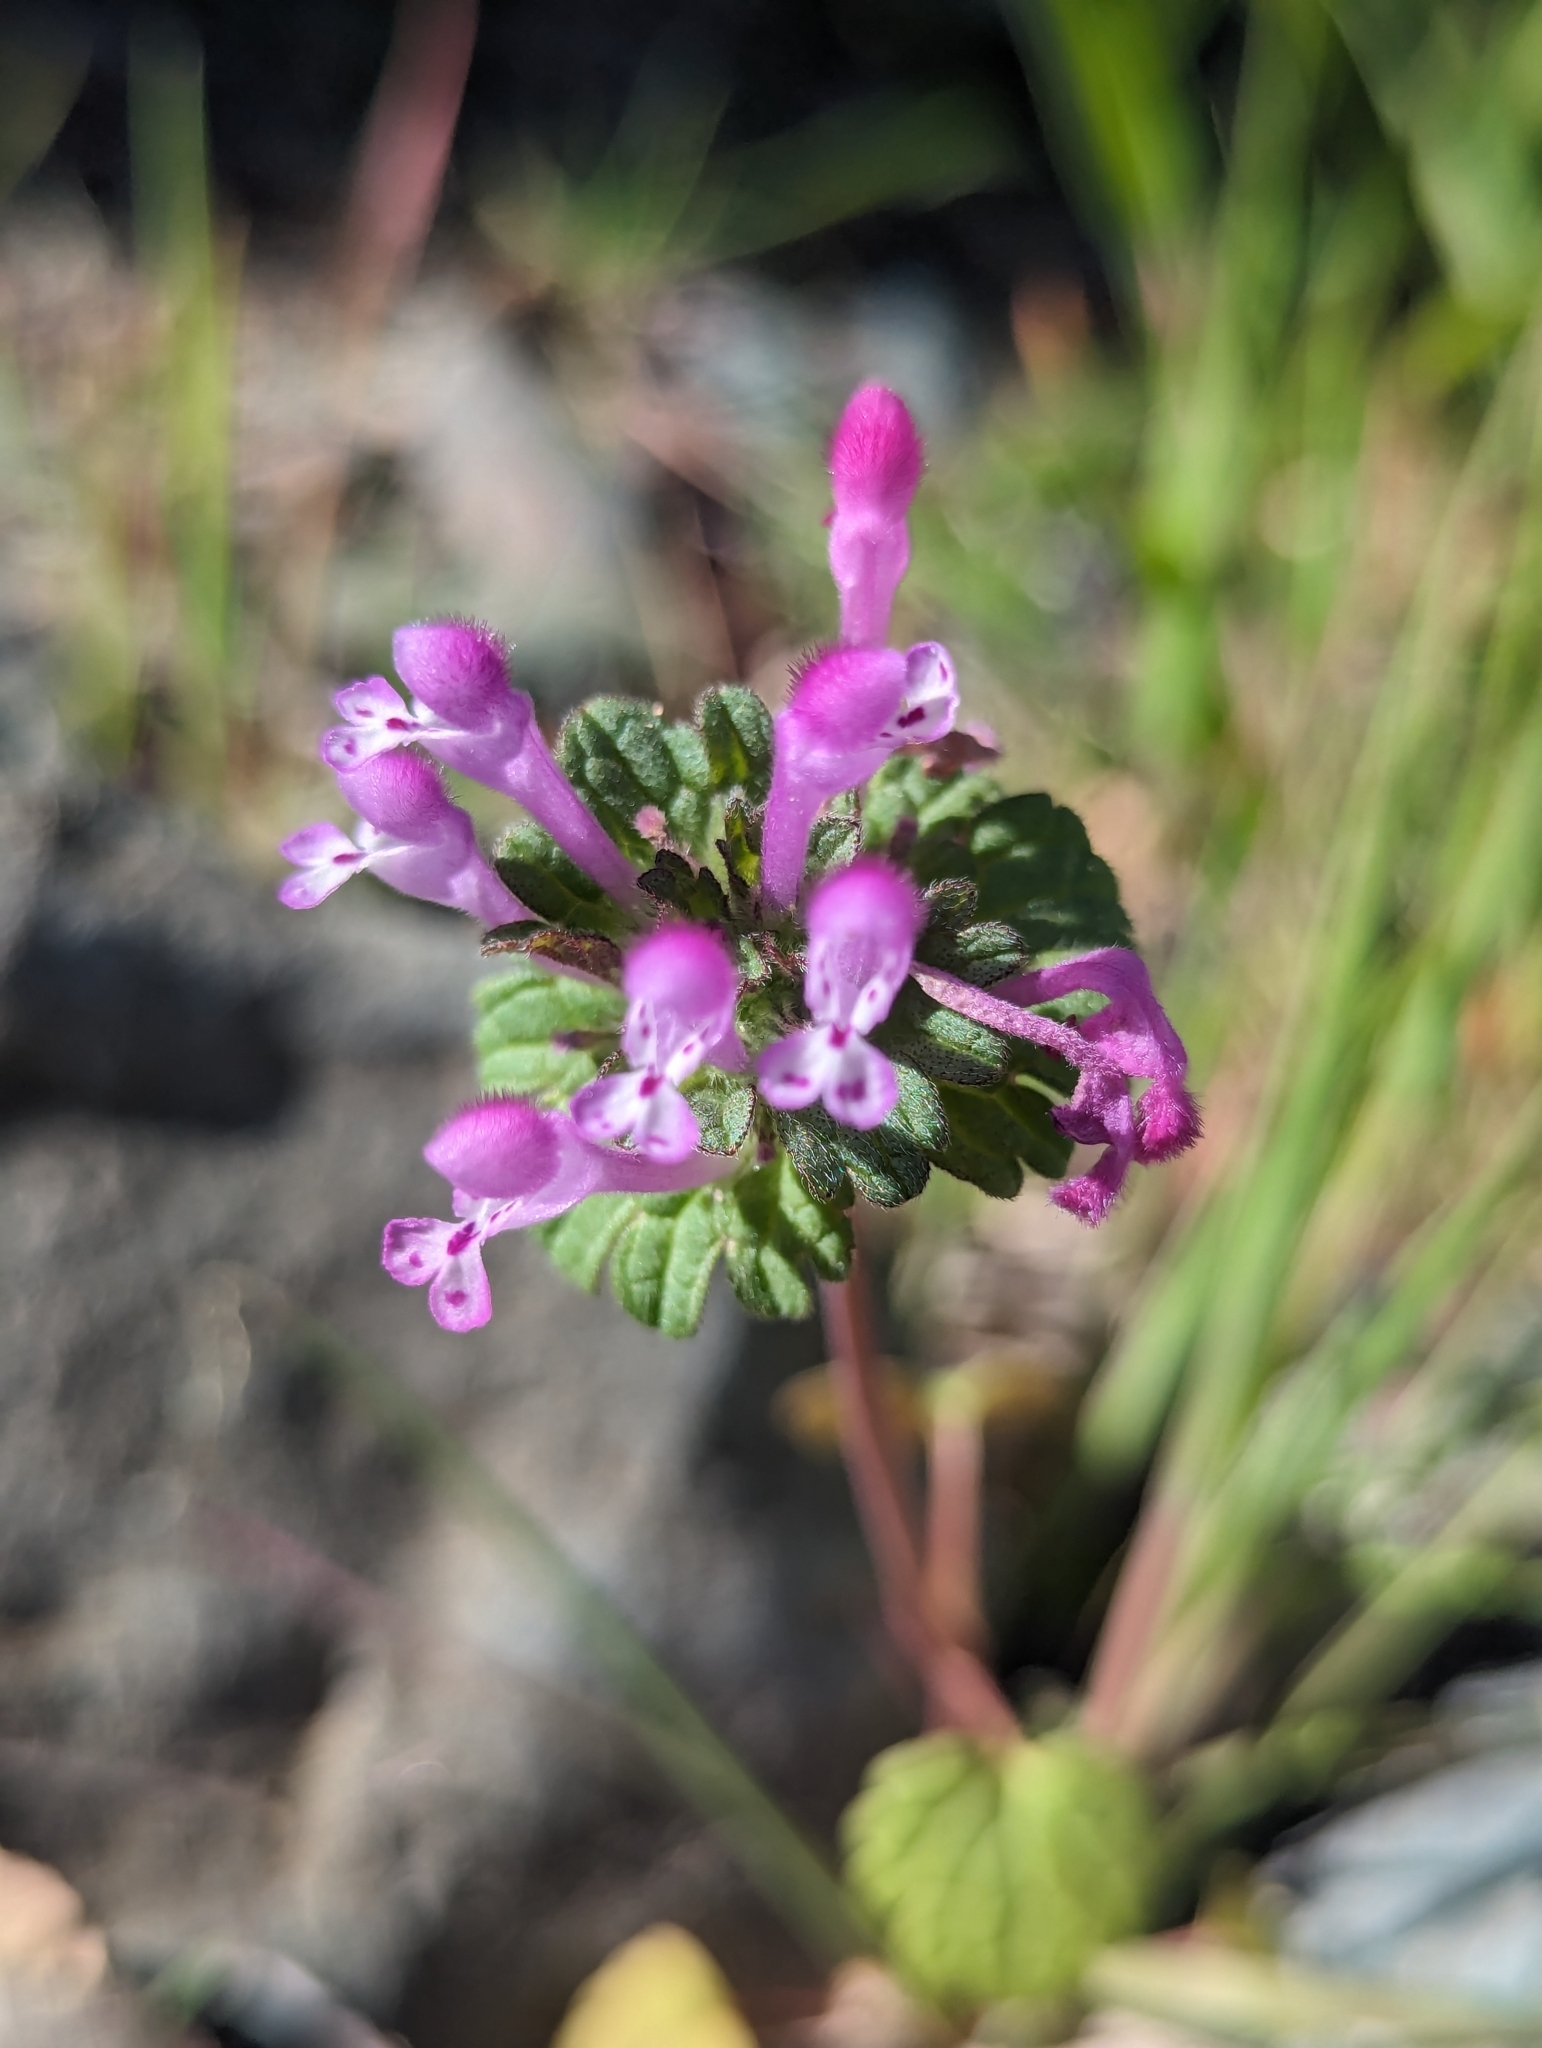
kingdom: Plantae
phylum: Tracheophyta
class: Magnoliopsida
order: Lamiales
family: Lamiaceae
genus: Lamium
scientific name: Lamium amplexicaule
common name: Henbit dead-nettle
